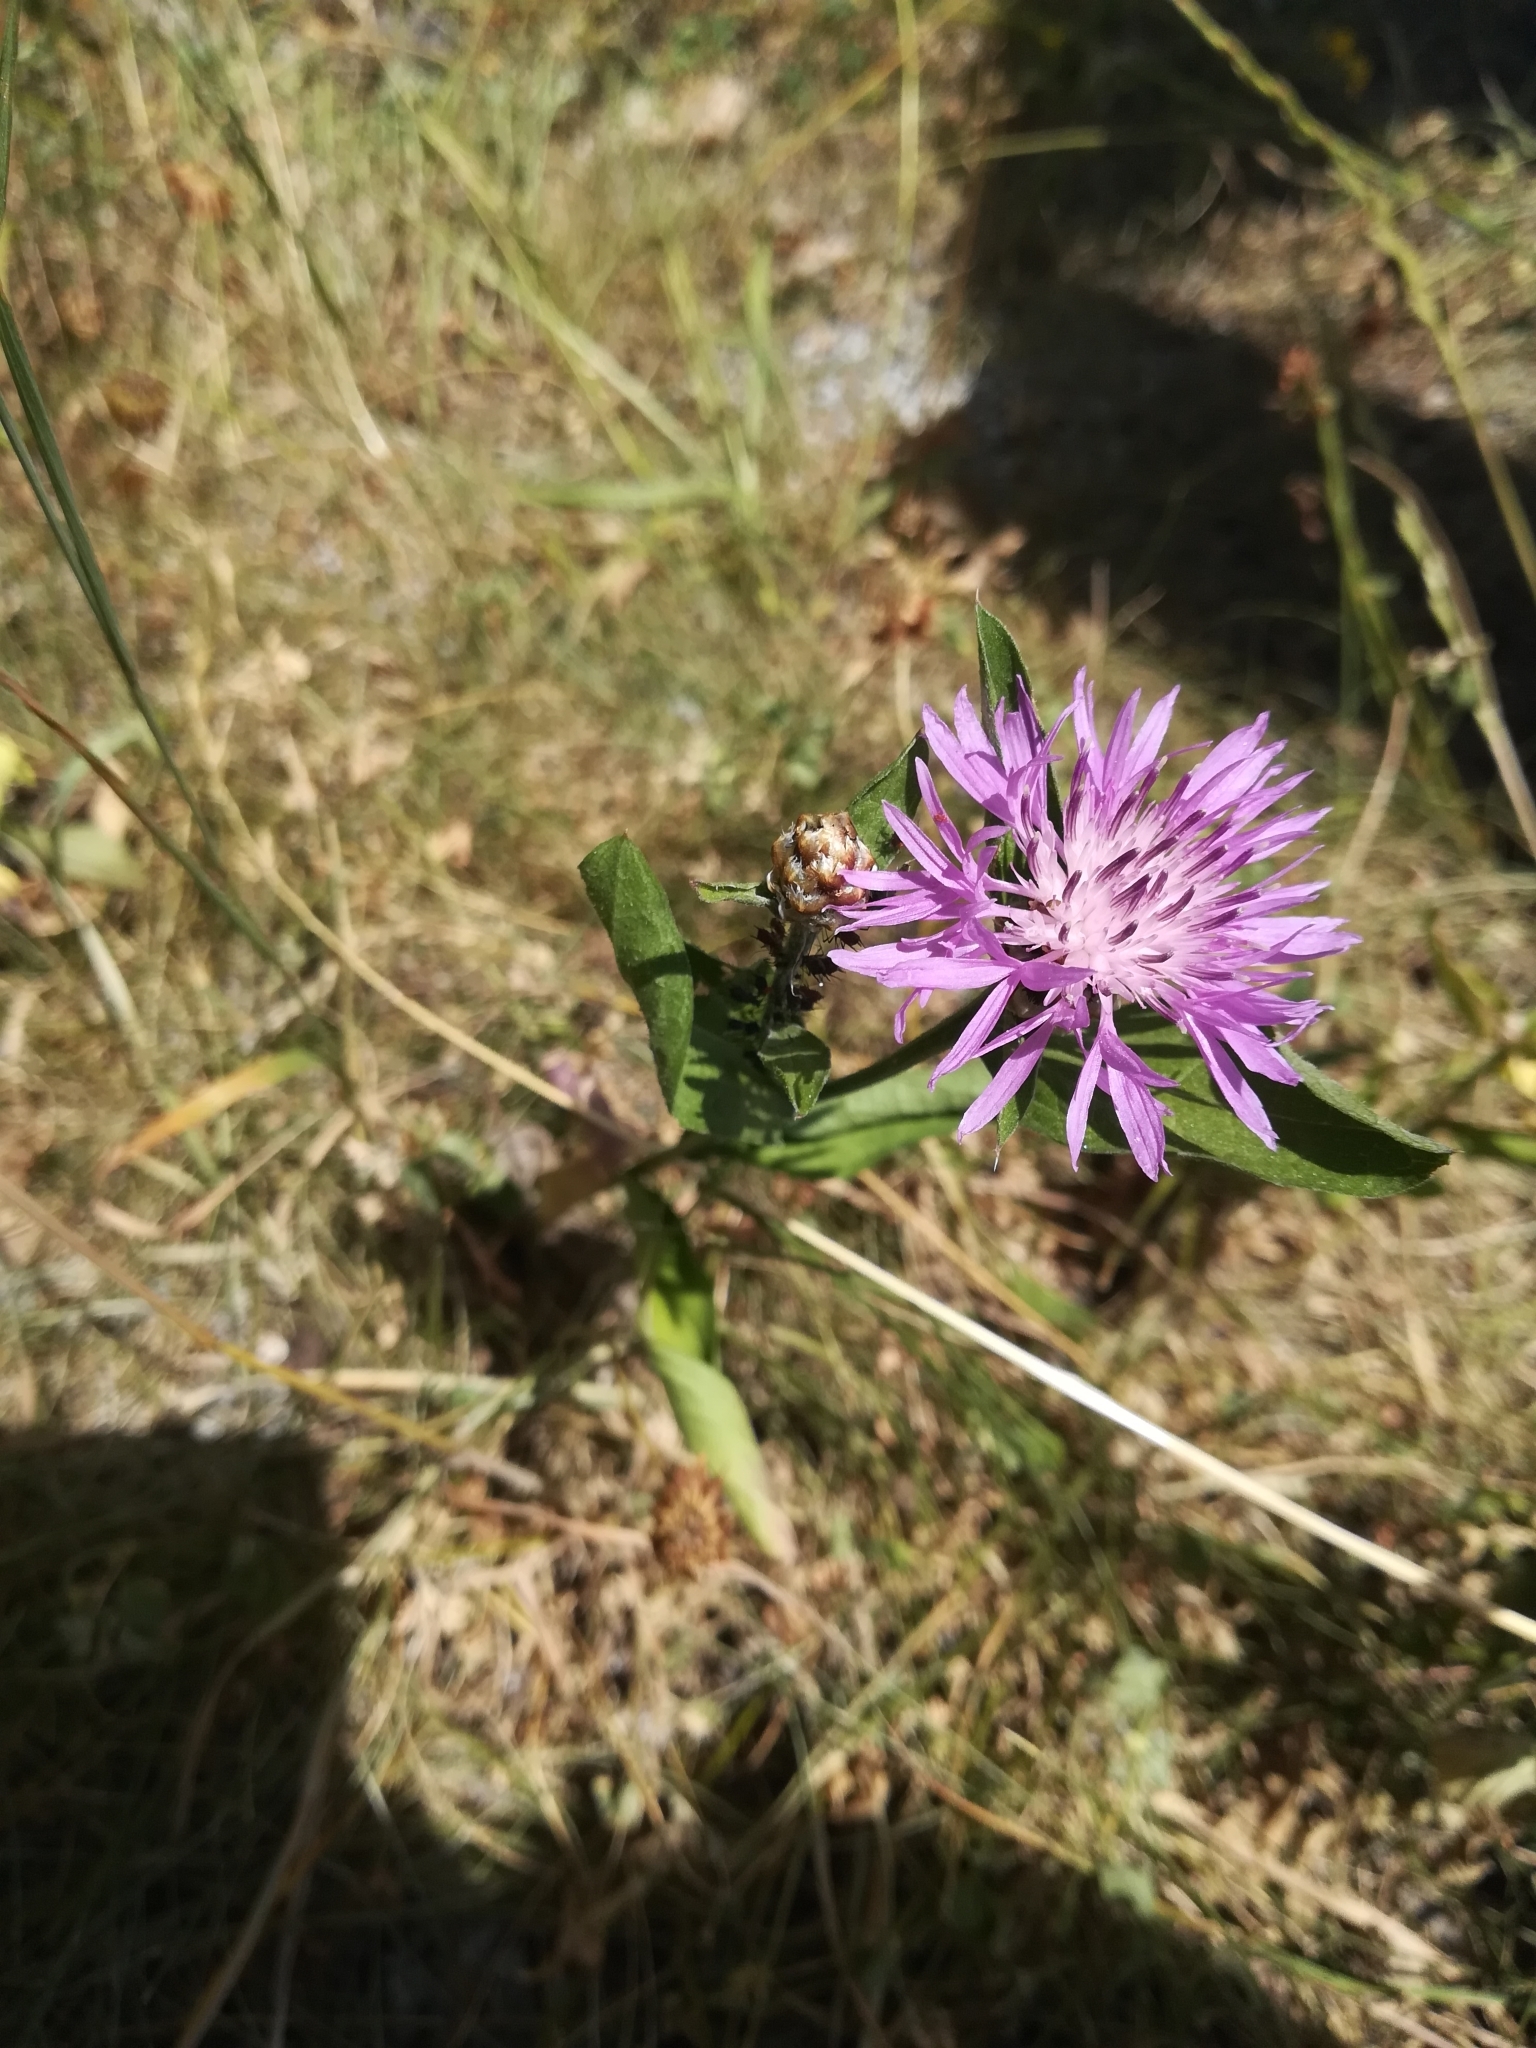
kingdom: Plantae
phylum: Tracheophyta
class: Magnoliopsida
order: Asterales
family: Asteraceae
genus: Centaurea
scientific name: Centaurea jacea
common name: Brown knapweed
